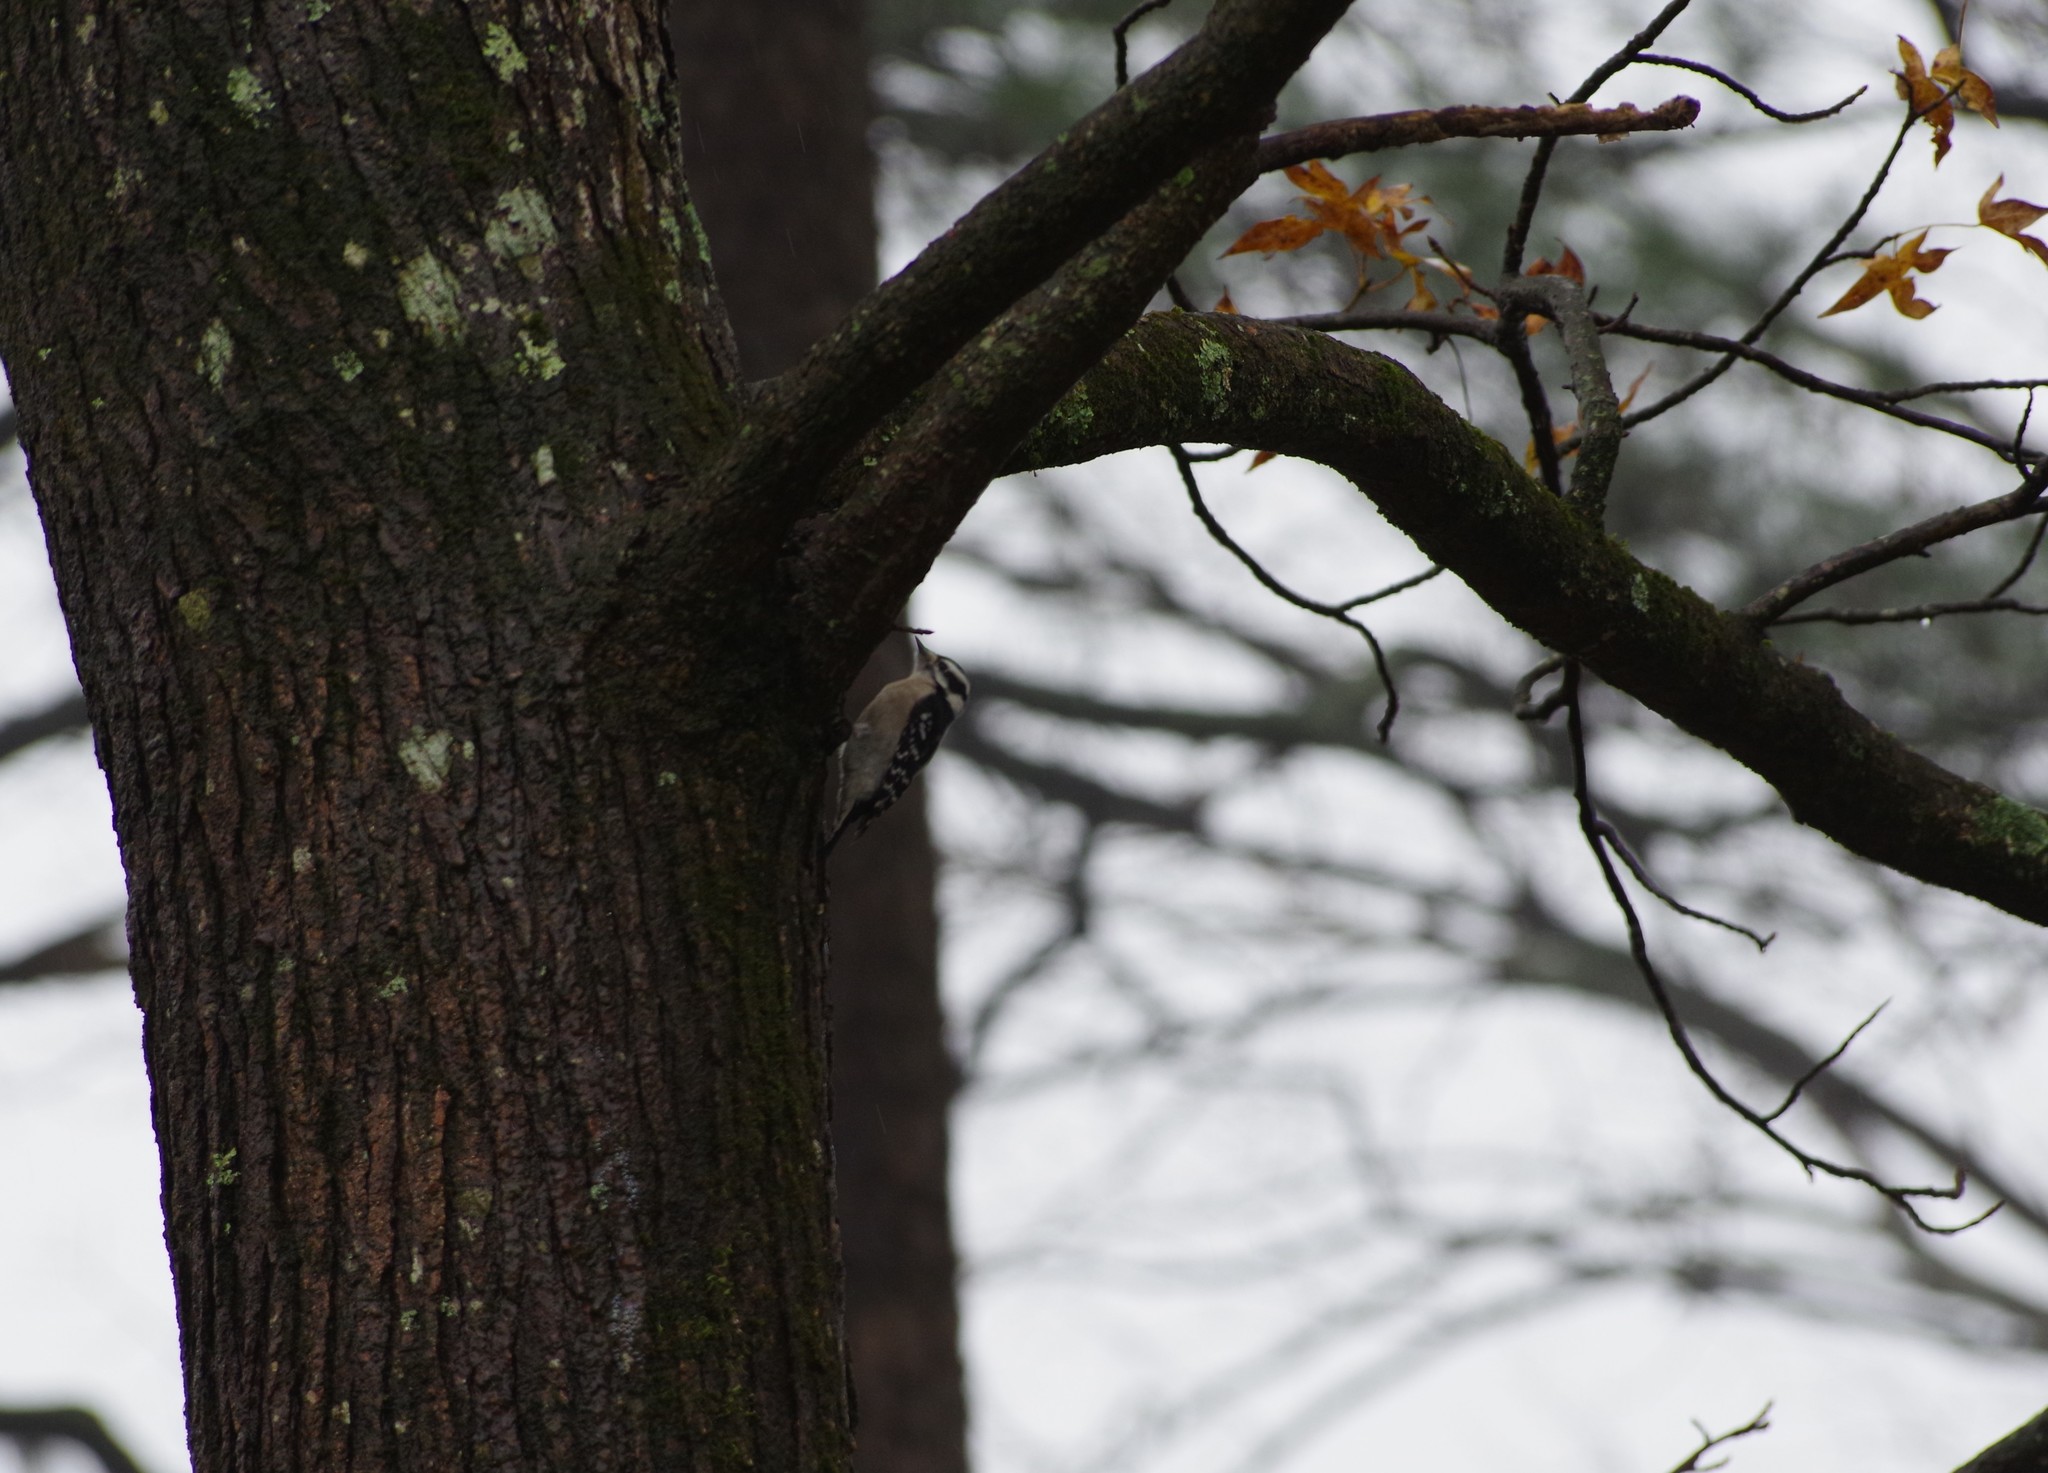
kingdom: Animalia
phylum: Chordata
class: Aves
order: Piciformes
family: Picidae
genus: Dryobates
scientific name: Dryobates pubescens
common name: Downy woodpecker
